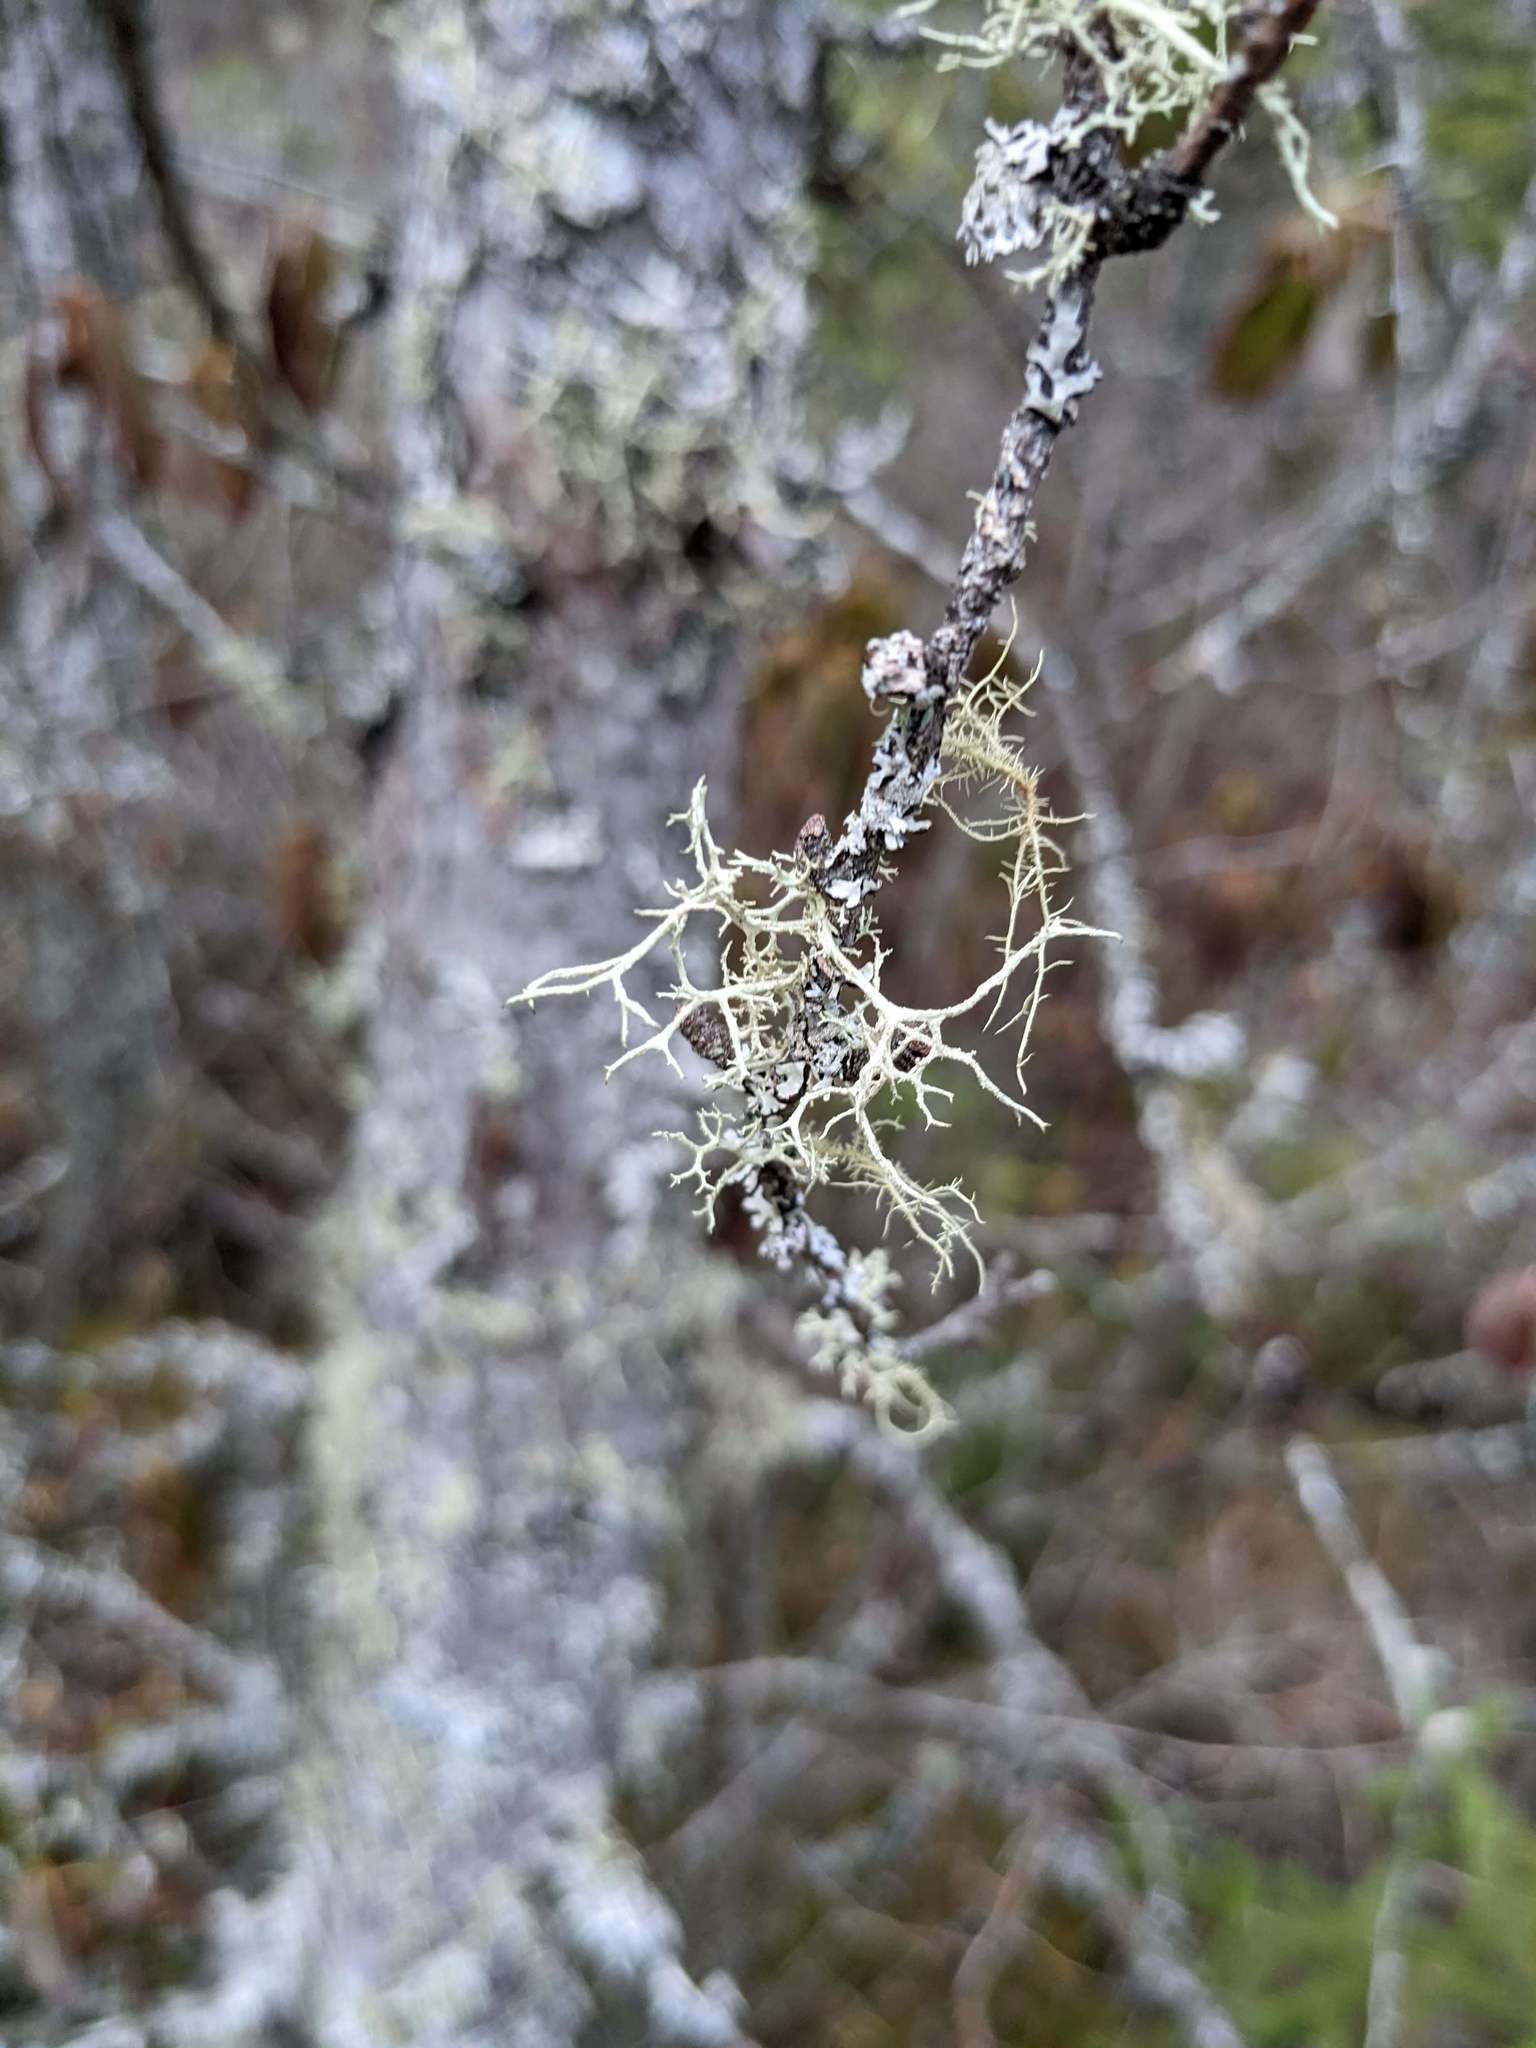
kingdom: Fungi
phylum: Ascomycota
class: Lecanoromycetes
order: Lecanorales
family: Parmeliaceae
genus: Evernia
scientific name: Evernia mesomorpha
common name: Boreal oak moss lichen
